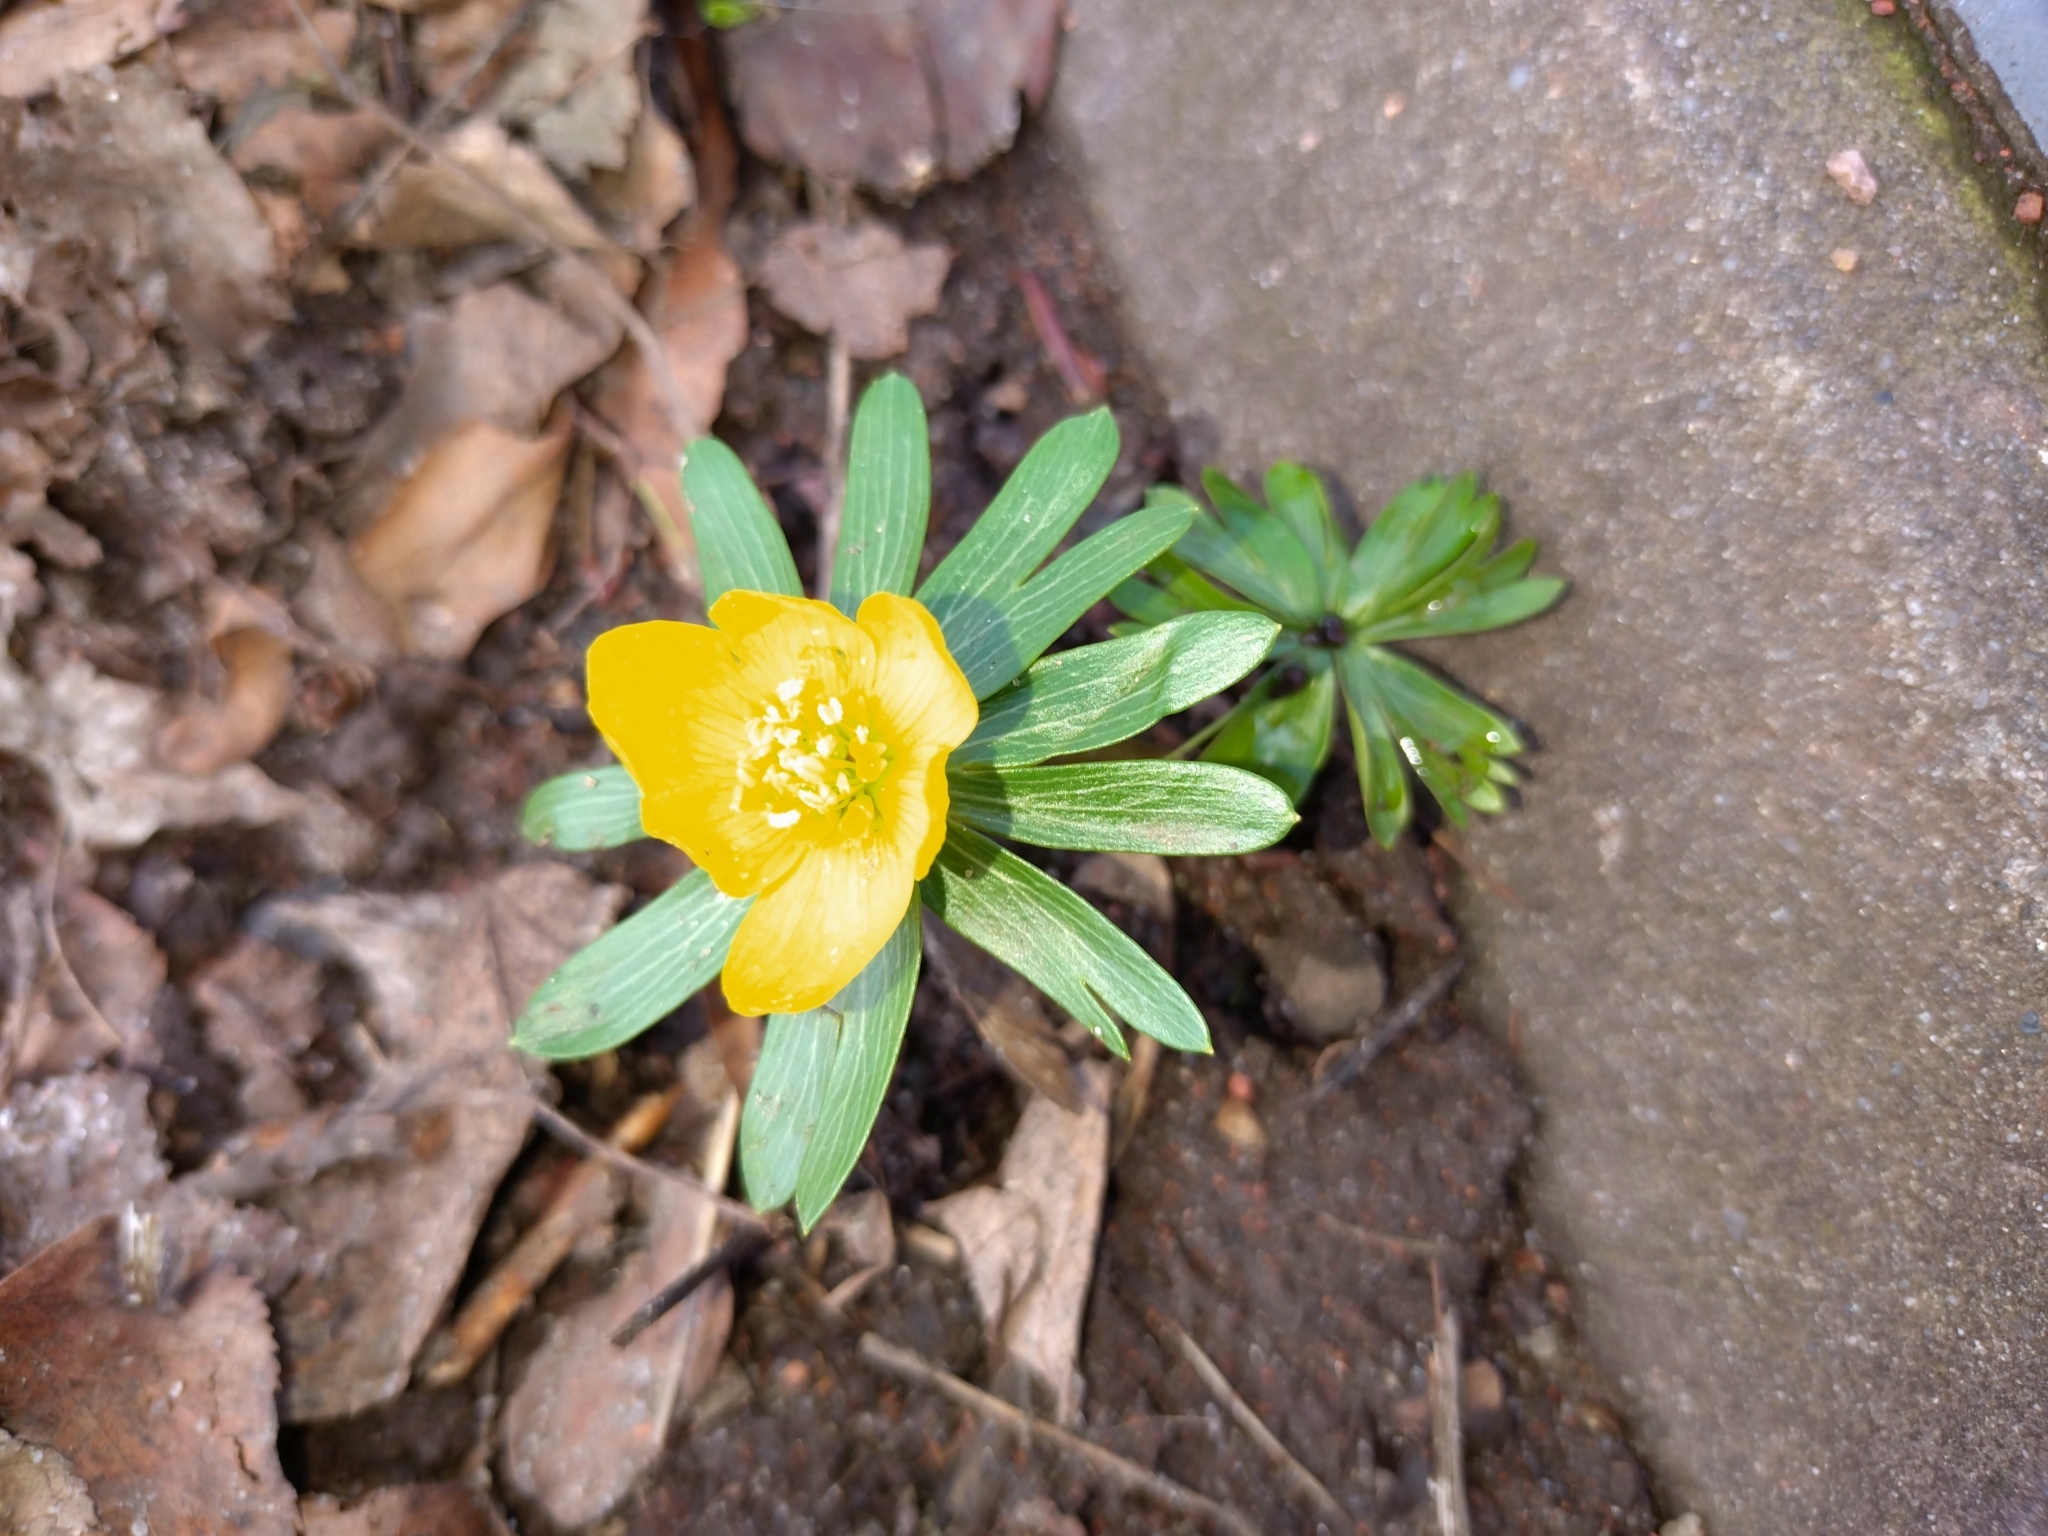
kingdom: Plantae
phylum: Tracheophyta
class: Magnoliopsida
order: Ranunculales
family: Ranunculaceae
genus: Eranthis
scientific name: Eranthis hyemalis
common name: Winter aconite
